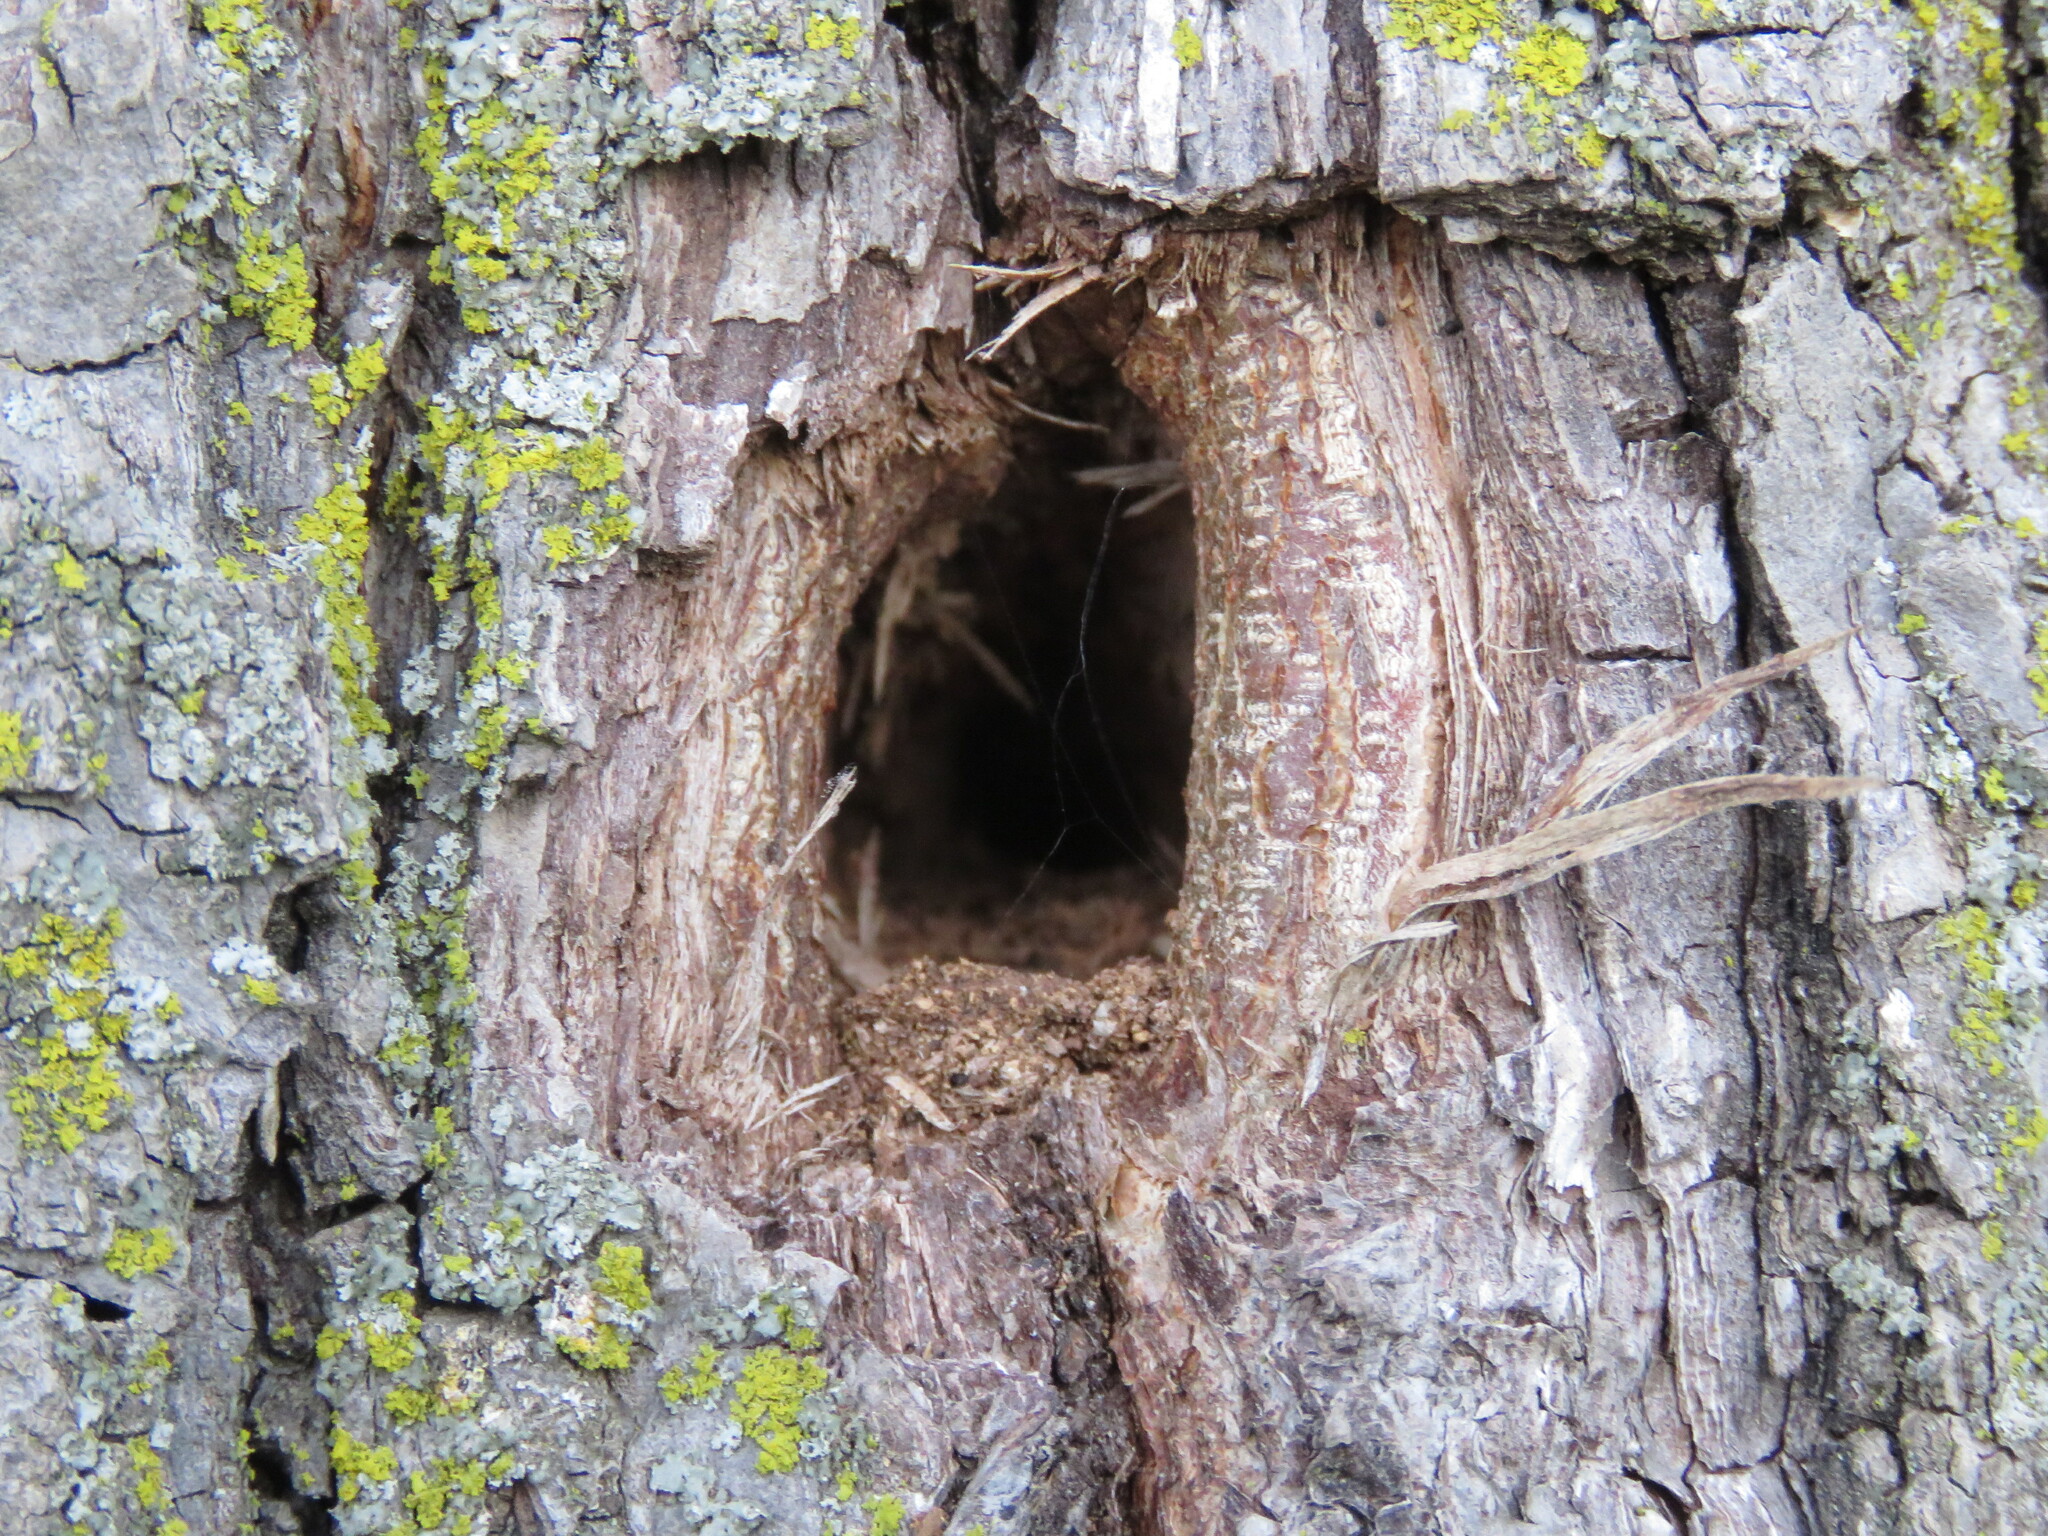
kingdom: Animalia
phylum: Arthropoda
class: Insecta
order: Hymenoptera
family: Apidae
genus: Bombus
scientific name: Bombus impatiens
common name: Common eastern bumble bee
